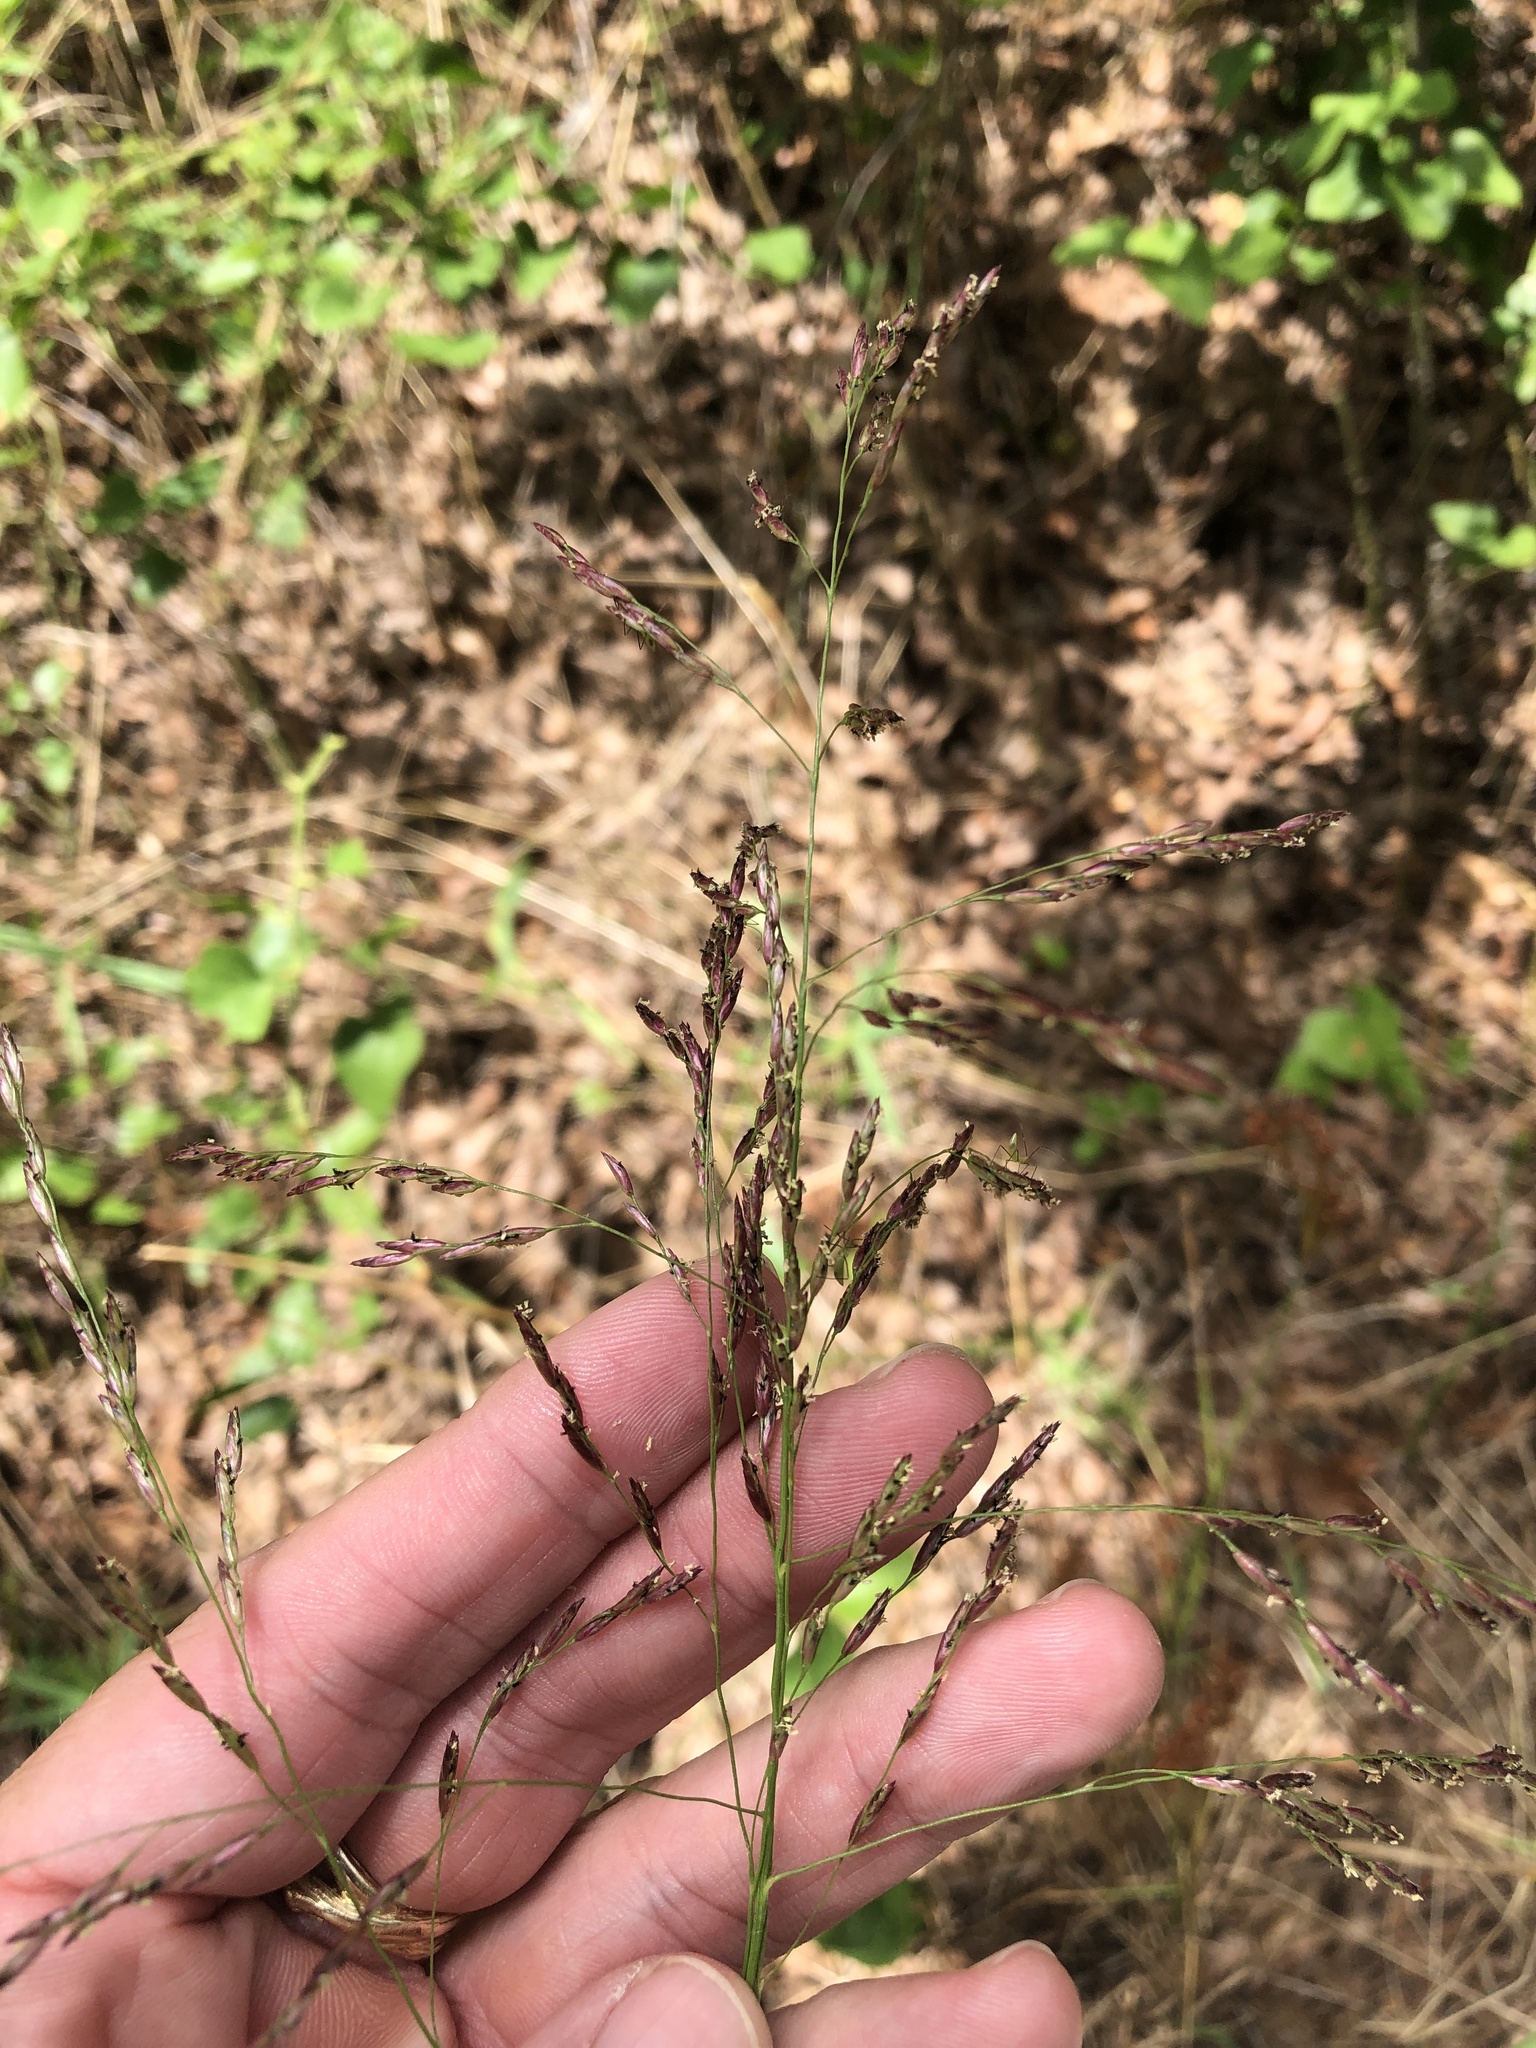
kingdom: Plantae
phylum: Tracheophyta
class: Liliopsida
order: Poales
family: Poaceae
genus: Tridens
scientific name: Tridens flavus
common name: Purpletop
